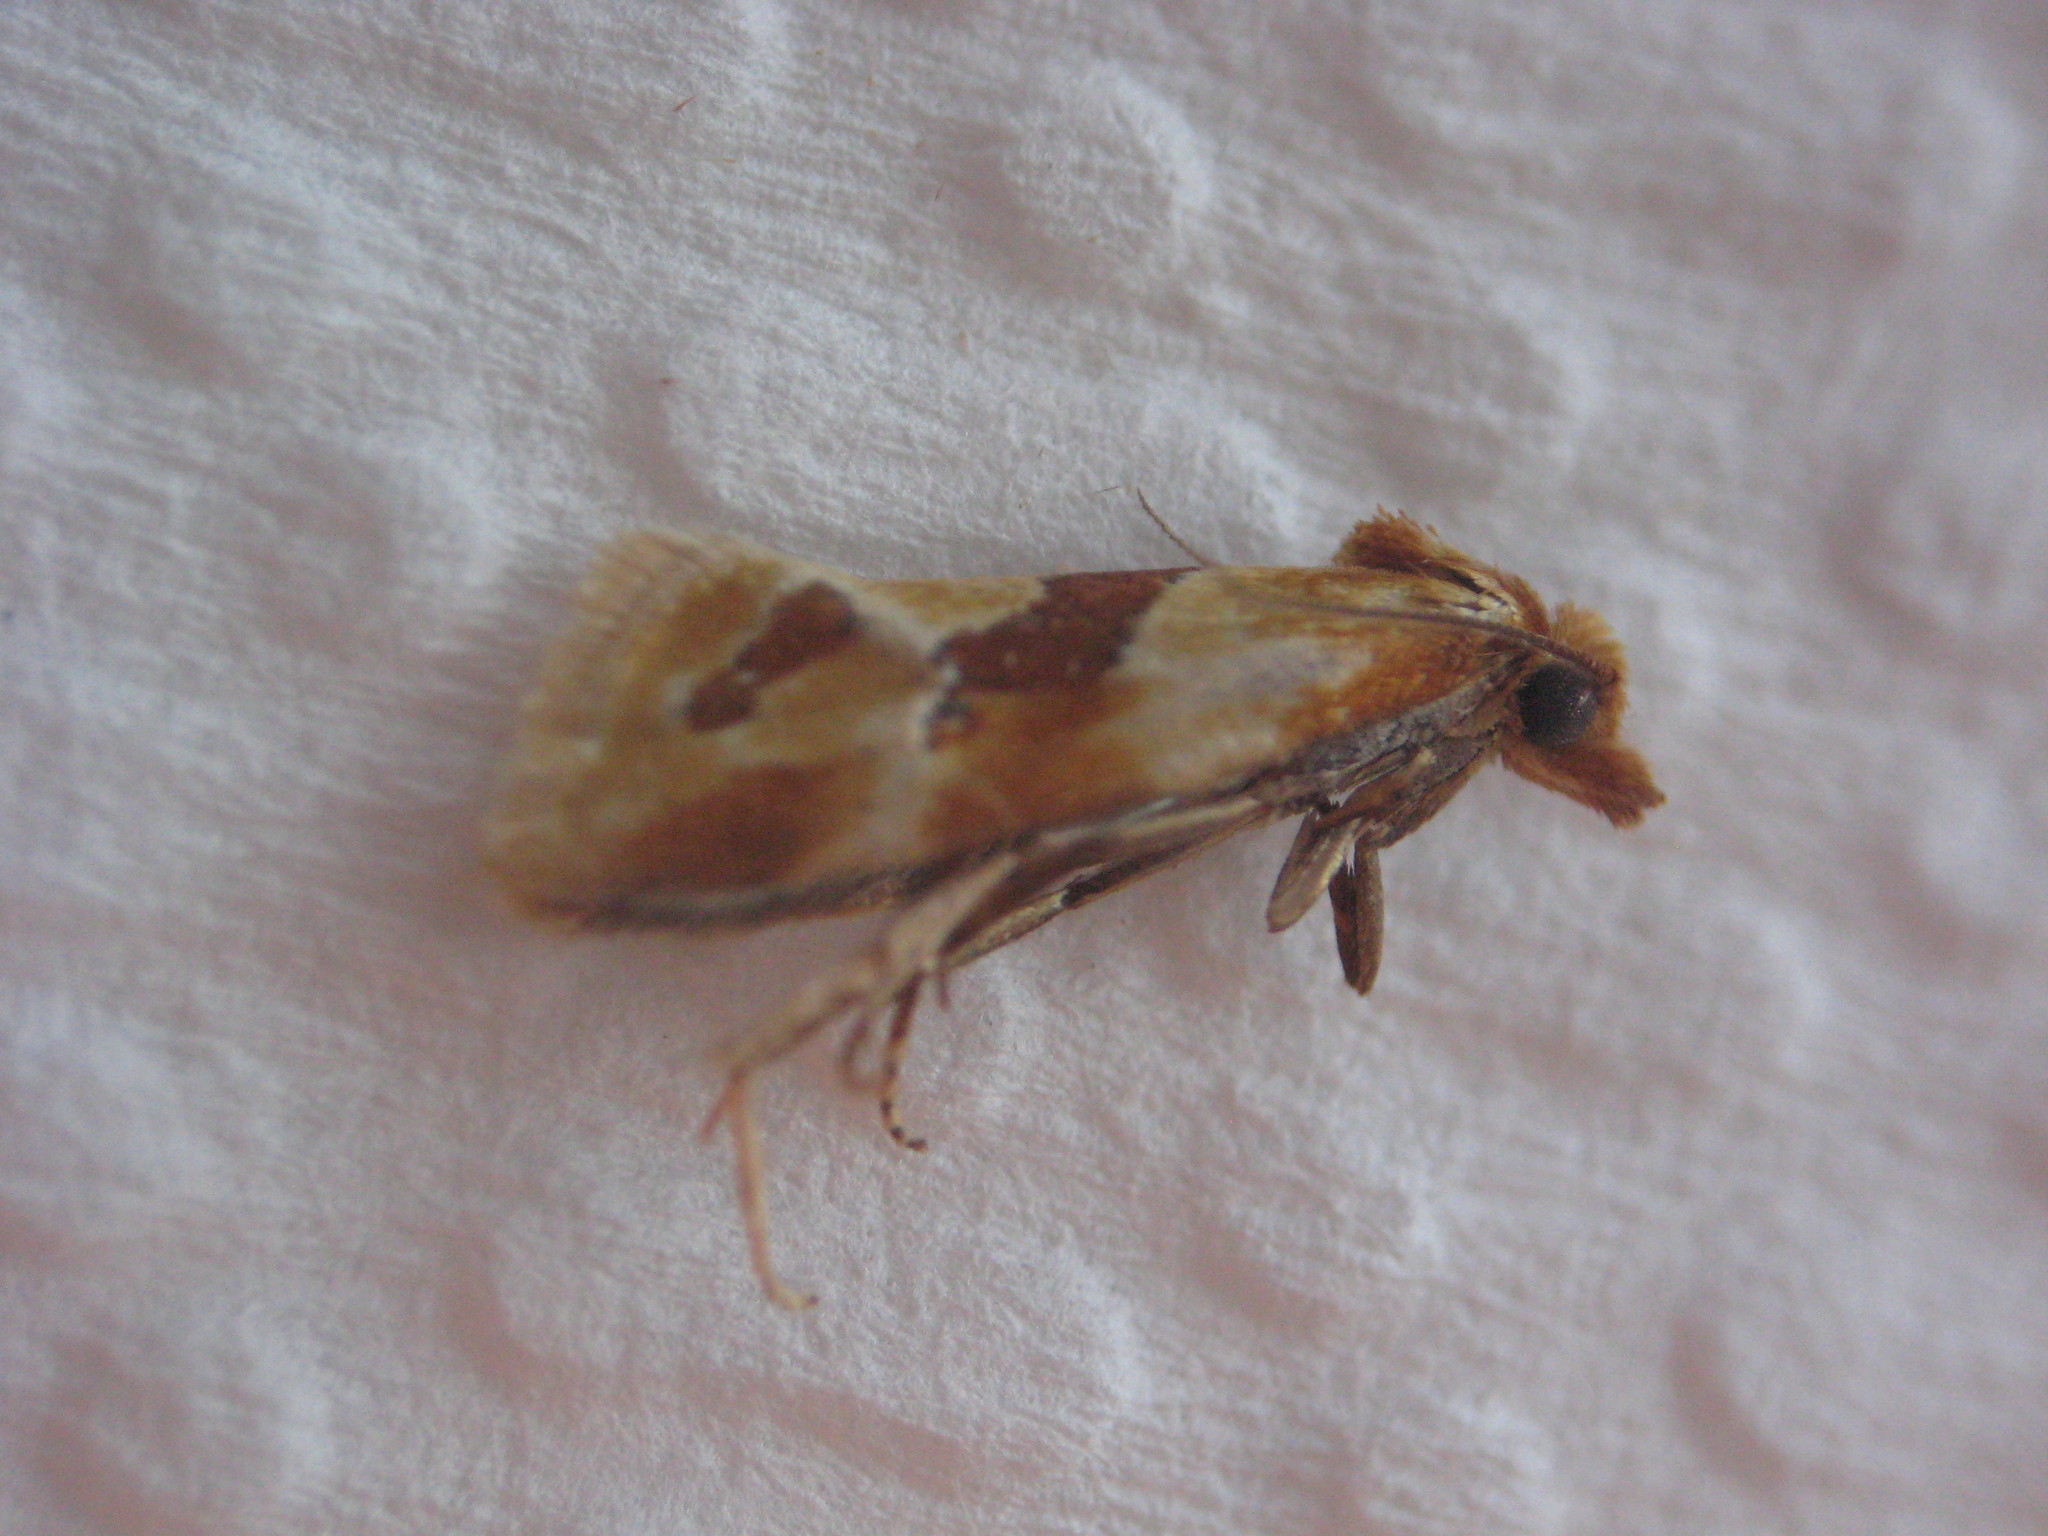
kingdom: Animalia
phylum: Arthropoda
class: Insecta
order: Lepidoptera
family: Tortricidae
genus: Aethes
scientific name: Aethes louisiana
